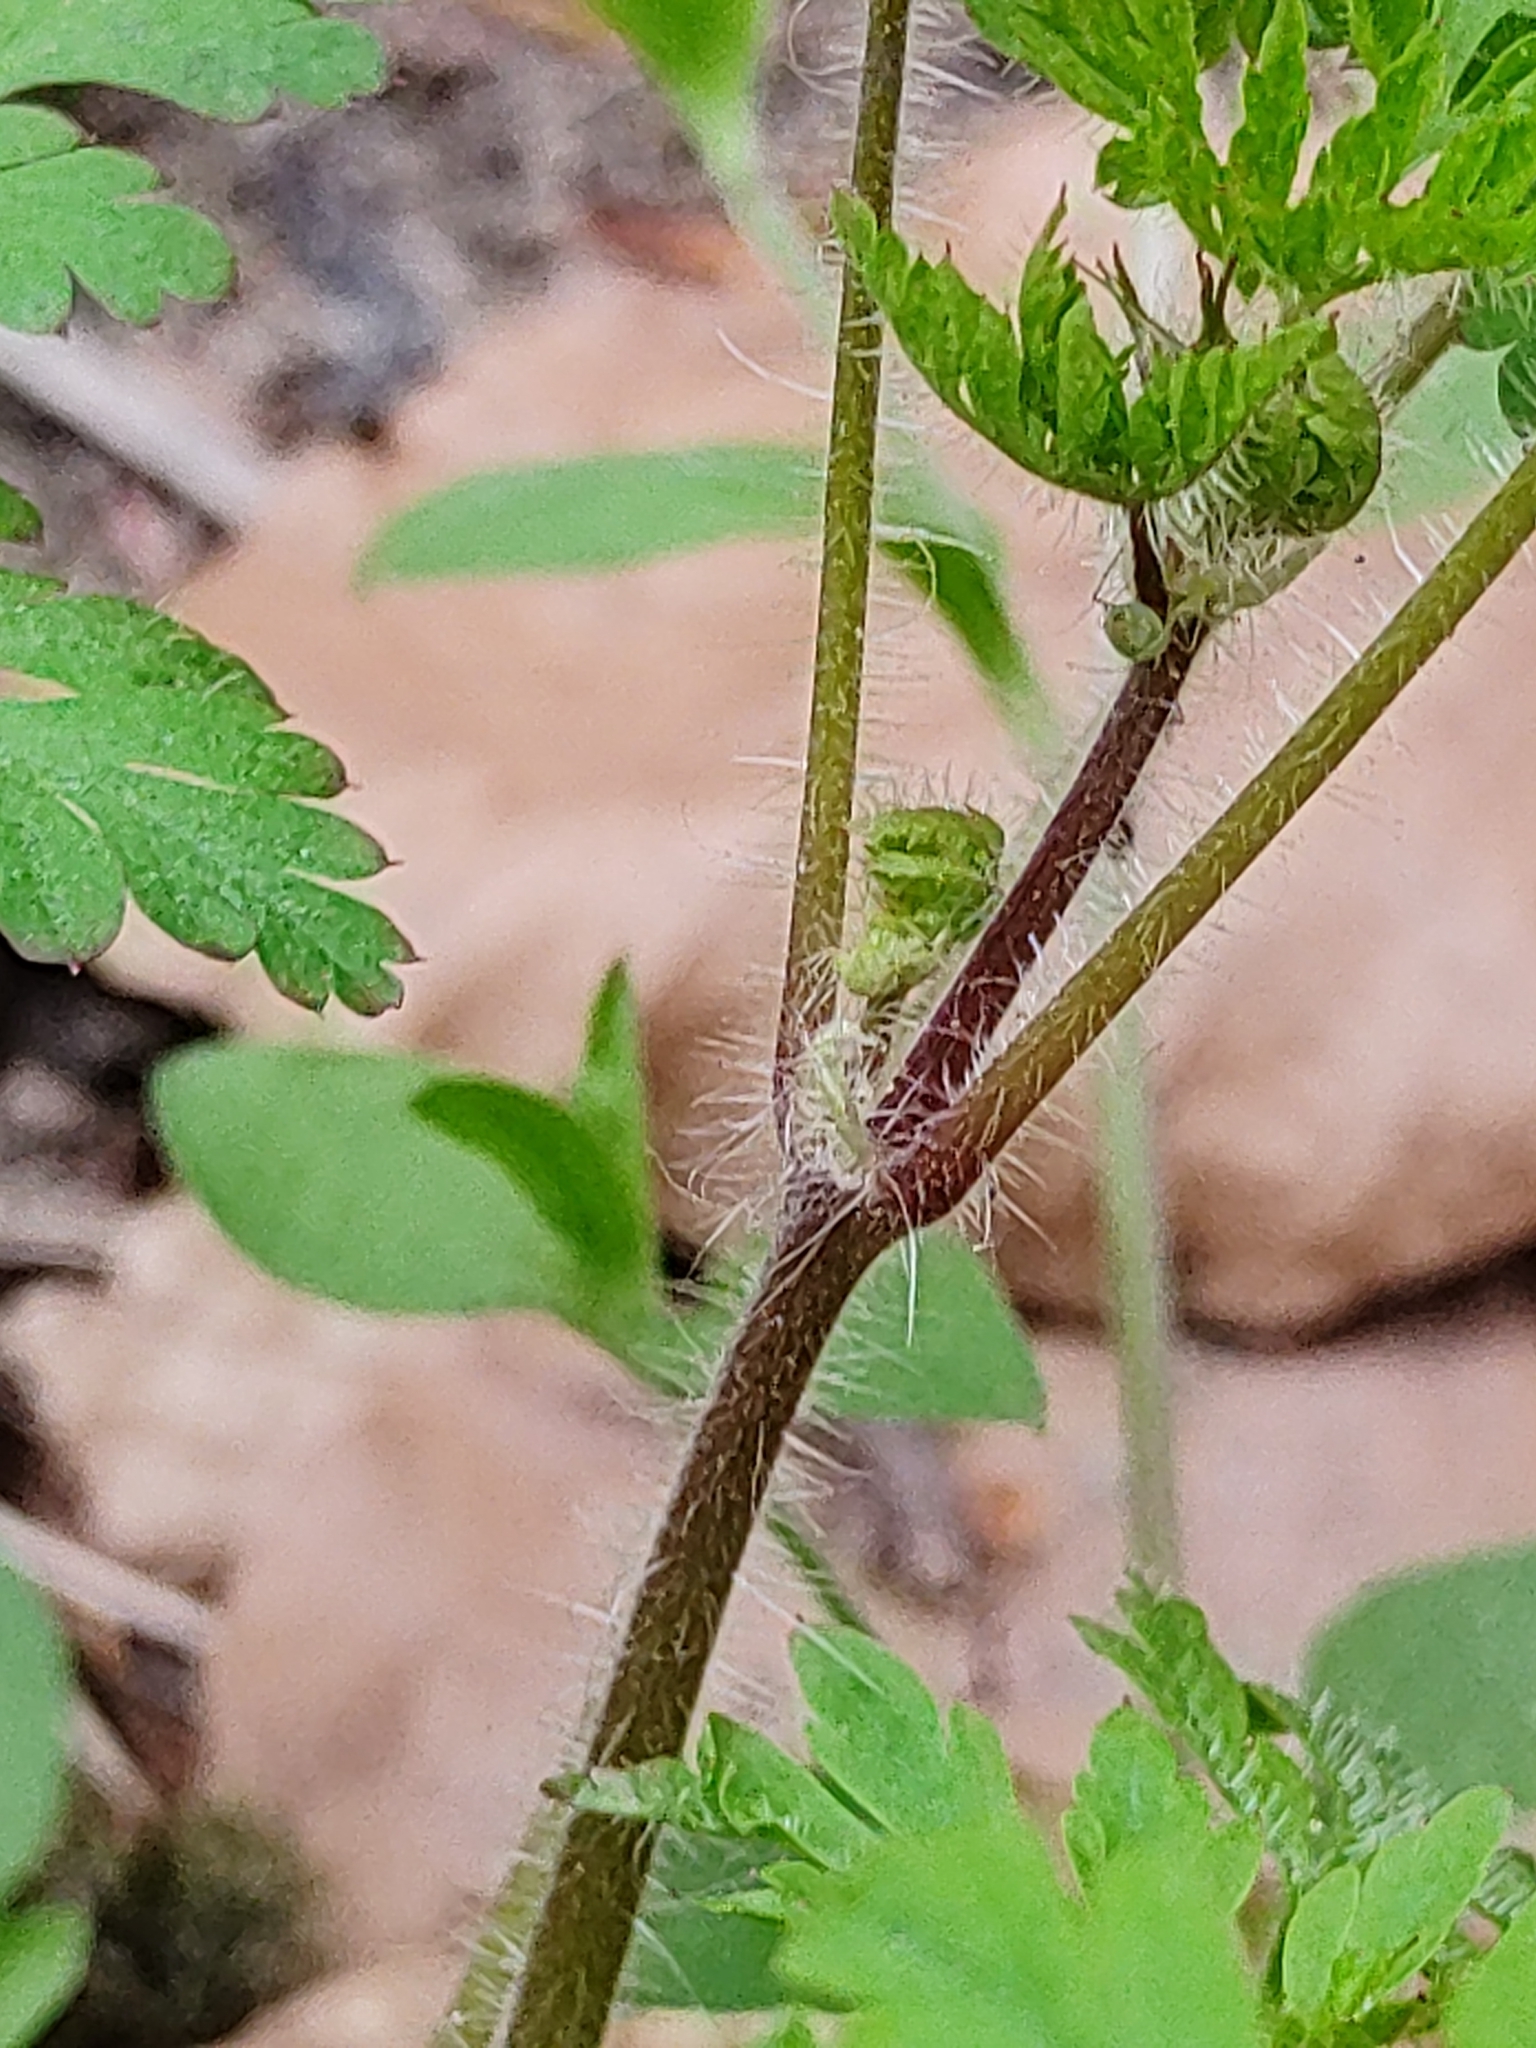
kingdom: Plantae
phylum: Tracheophyta
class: Magnoliopsida
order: Geraniales
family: Geraniaceae
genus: Geranium
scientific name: Geranium robertianum
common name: Herb-robert
